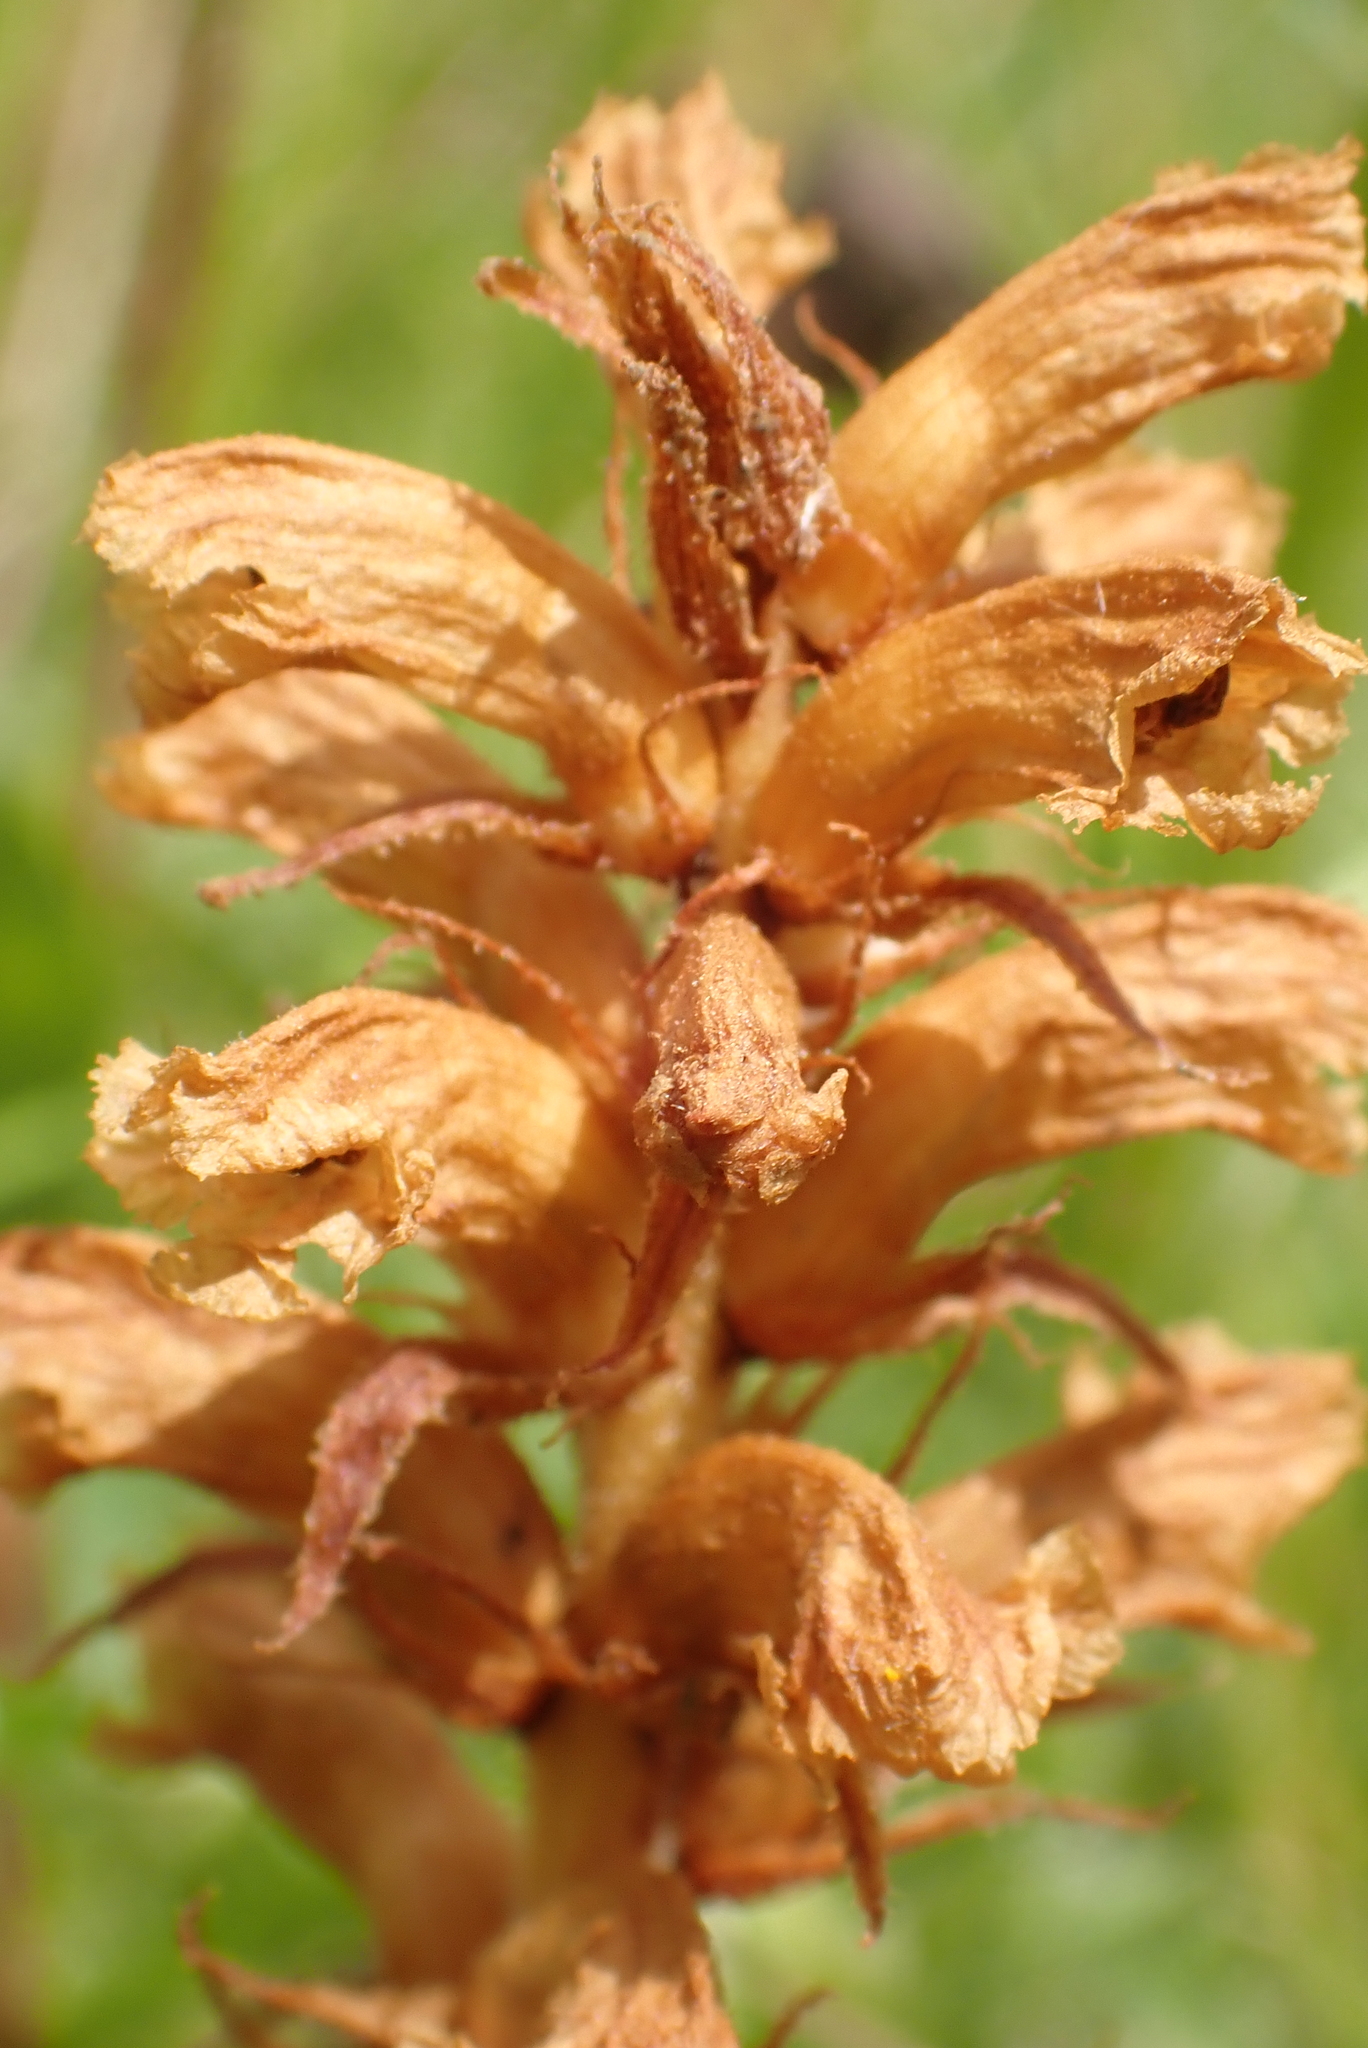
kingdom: Plantae
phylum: Tracheophyta
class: Magnoliopsida
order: Lamiales
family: Orobanchaceae
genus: Orobanche
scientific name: Orobanche minor
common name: Common broomrape
